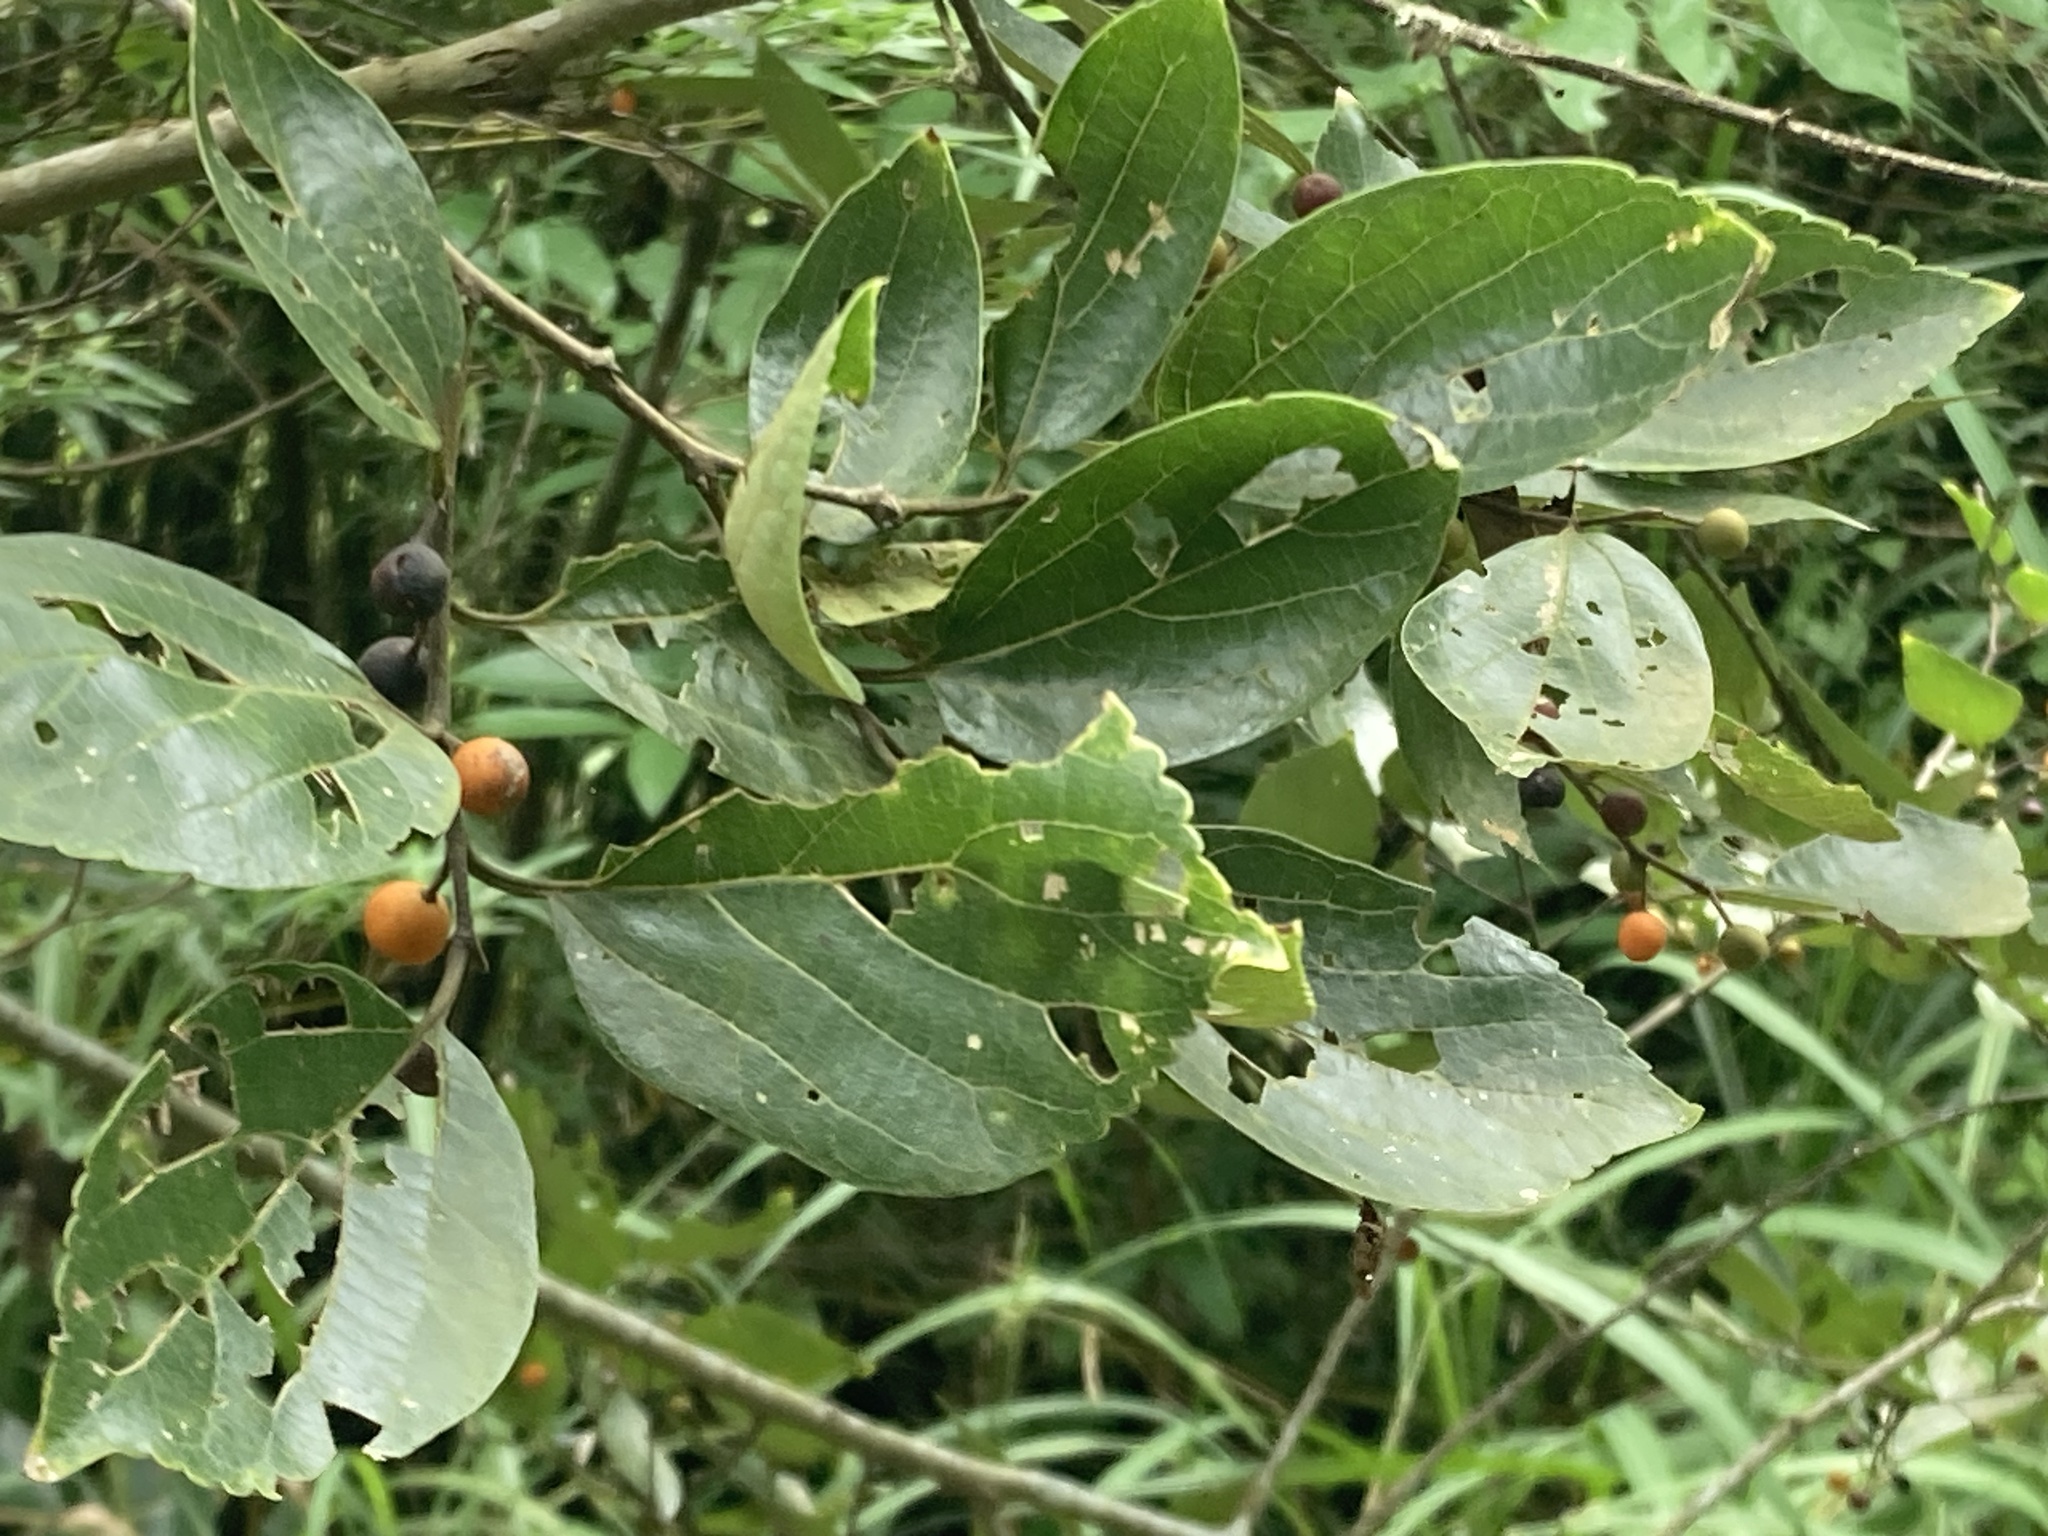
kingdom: Plantae
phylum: Tracheophyta
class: Magnoliopsida
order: Rosales
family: Cannabaceae
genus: Celtis
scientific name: Celtis sinensis
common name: Chinese hackberry
